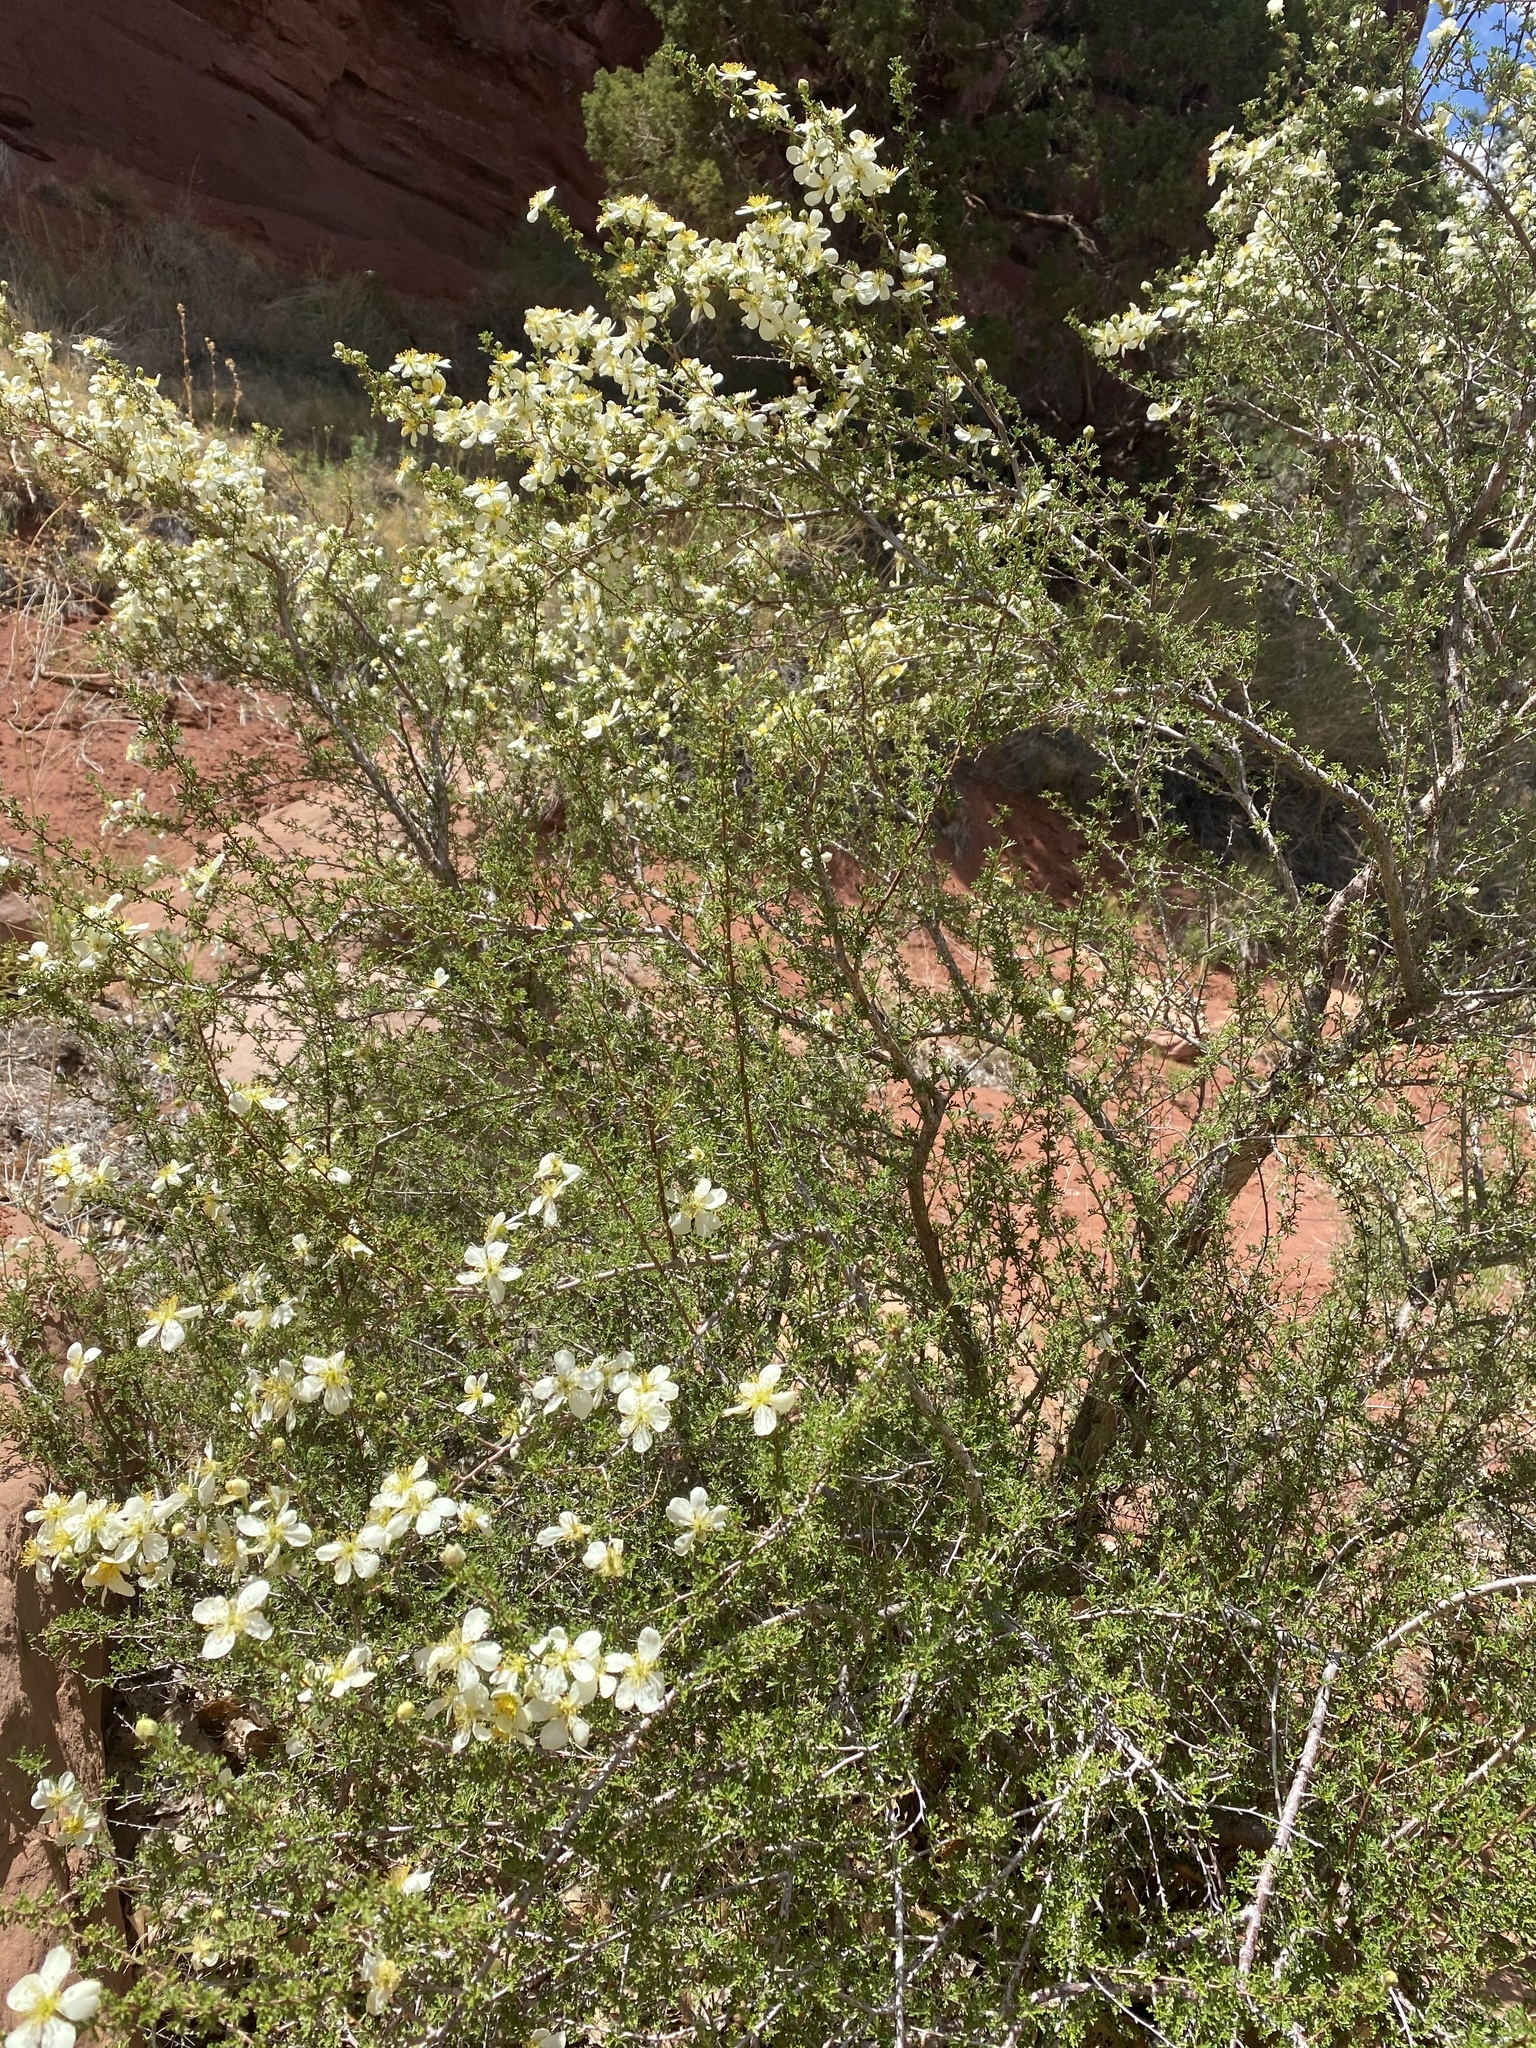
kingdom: Plantae
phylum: Tracheophyta
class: Magnoliopsida
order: Rosales
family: Rosaceae
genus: Purshia
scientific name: Purshia stansburiana
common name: Stansbury's cliffrose
